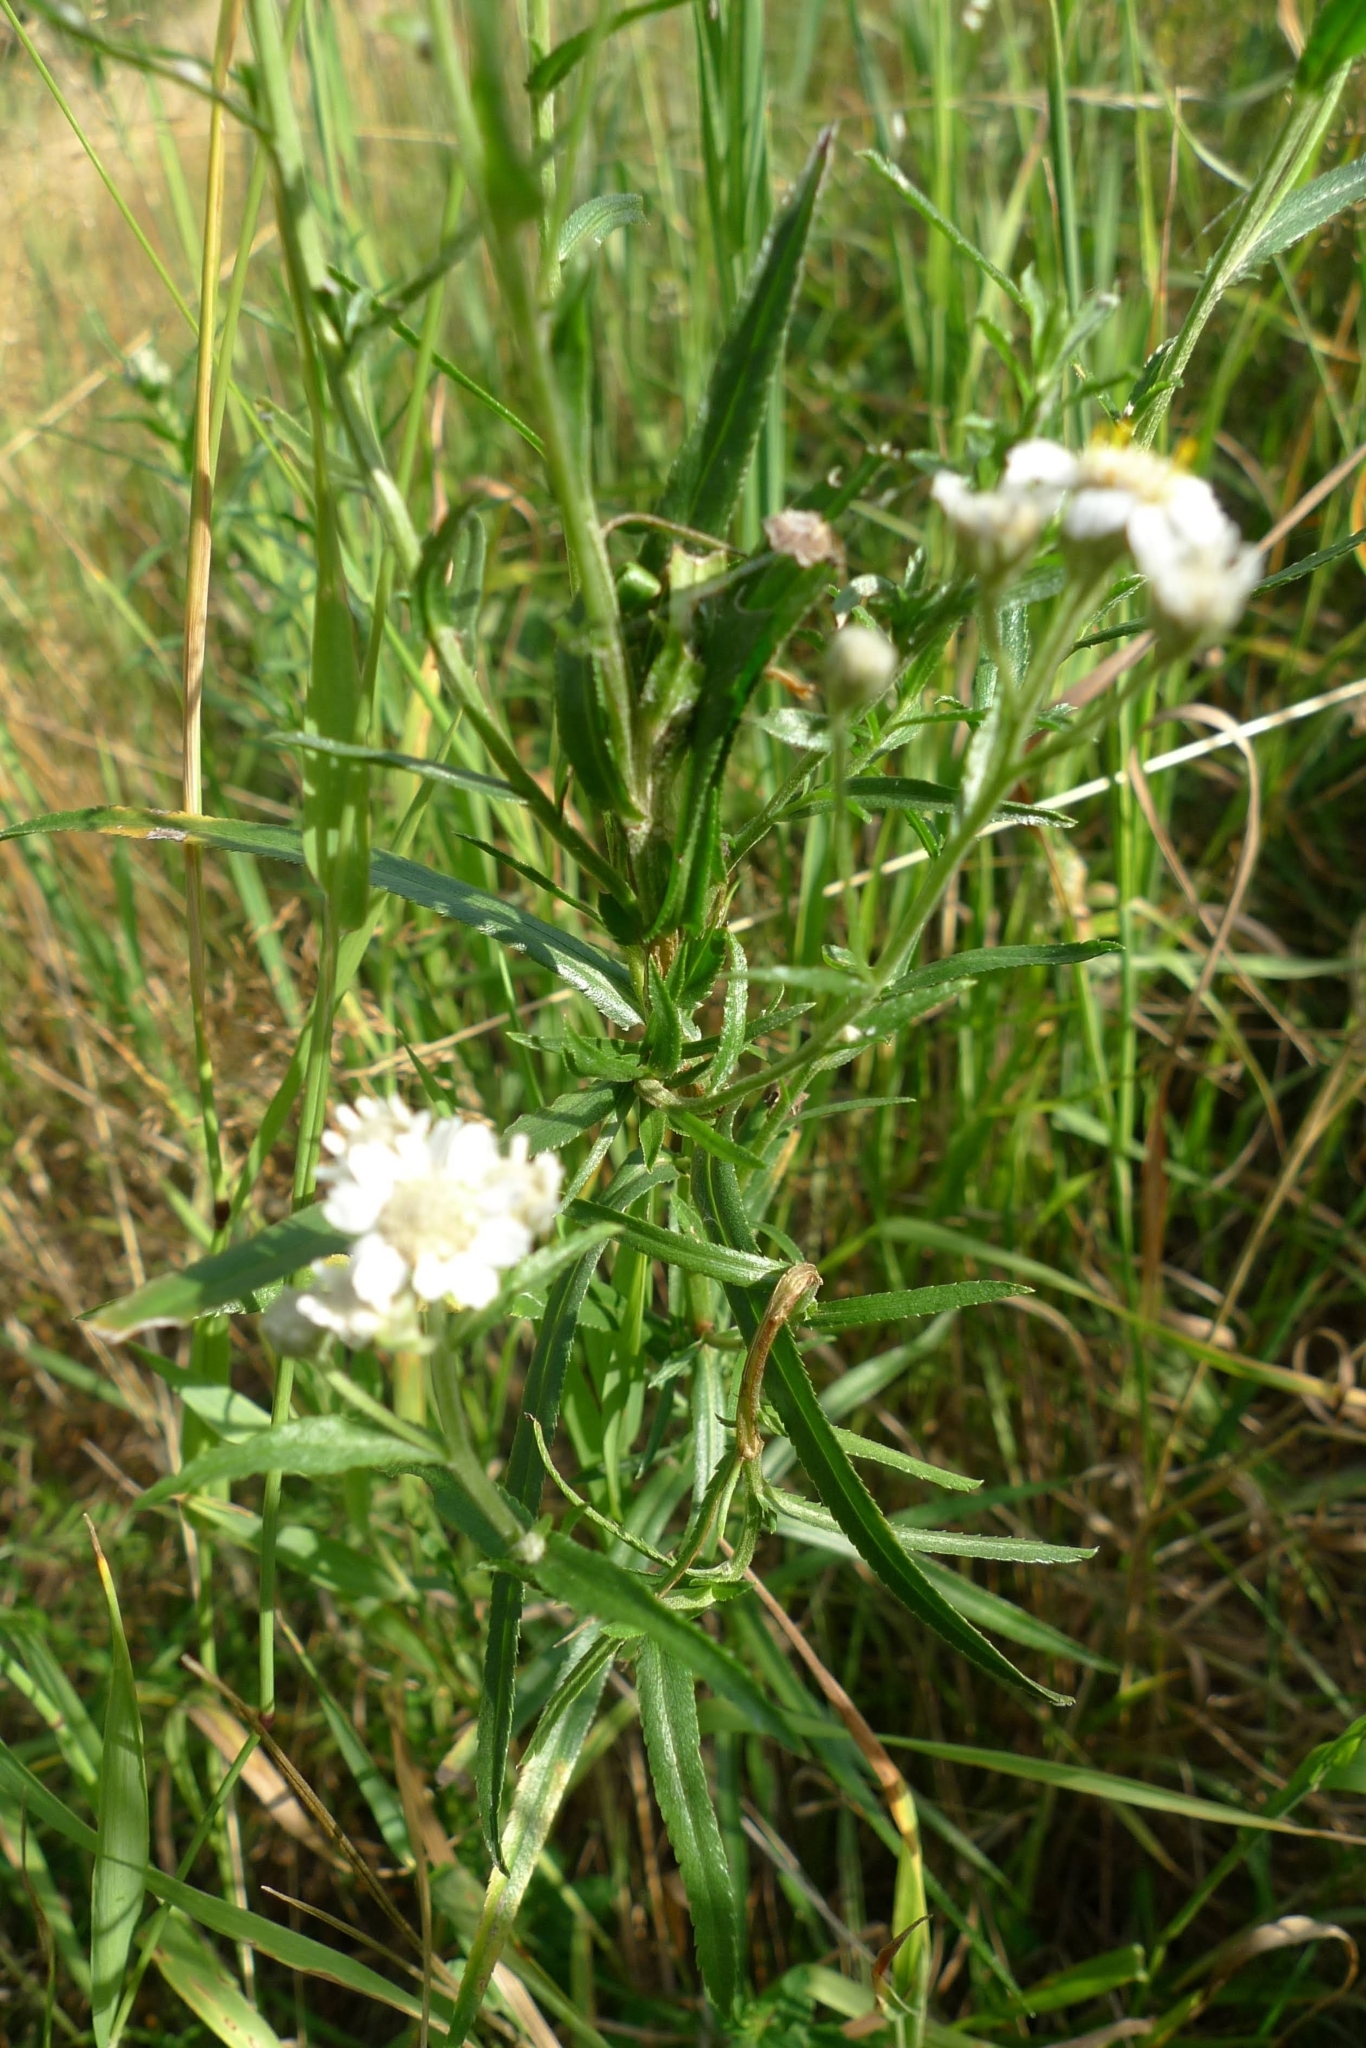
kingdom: Plantae
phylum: Tracheophyta
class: Magnoliopsida
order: Asterales
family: Asteraceae
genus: Achillea
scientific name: Achillea ptarmica
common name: Sneezeweed
